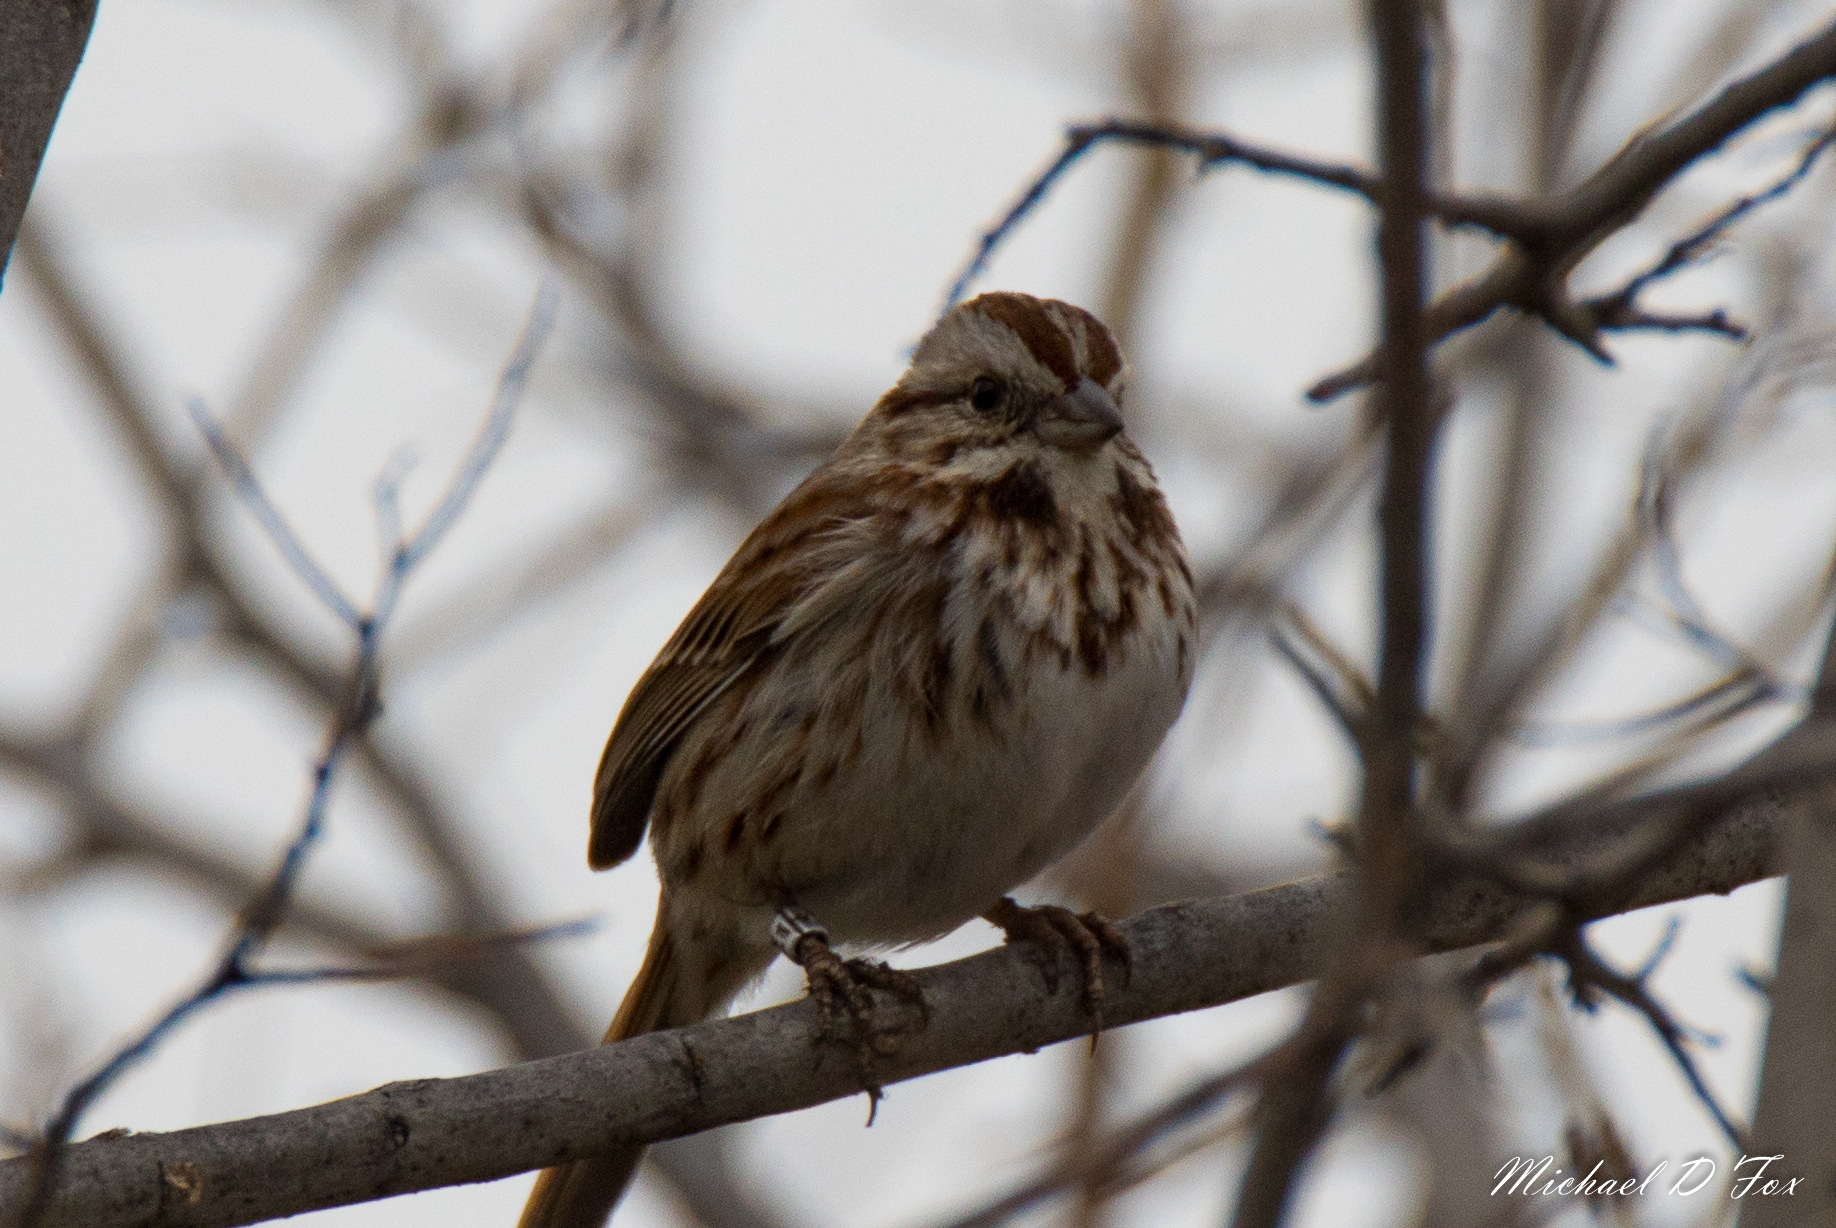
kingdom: Animalia
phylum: Chordata
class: Aves
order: Passeriformes
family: Passerellidae
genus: Melospiza
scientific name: Melospiza melodia
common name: Song sparrow
